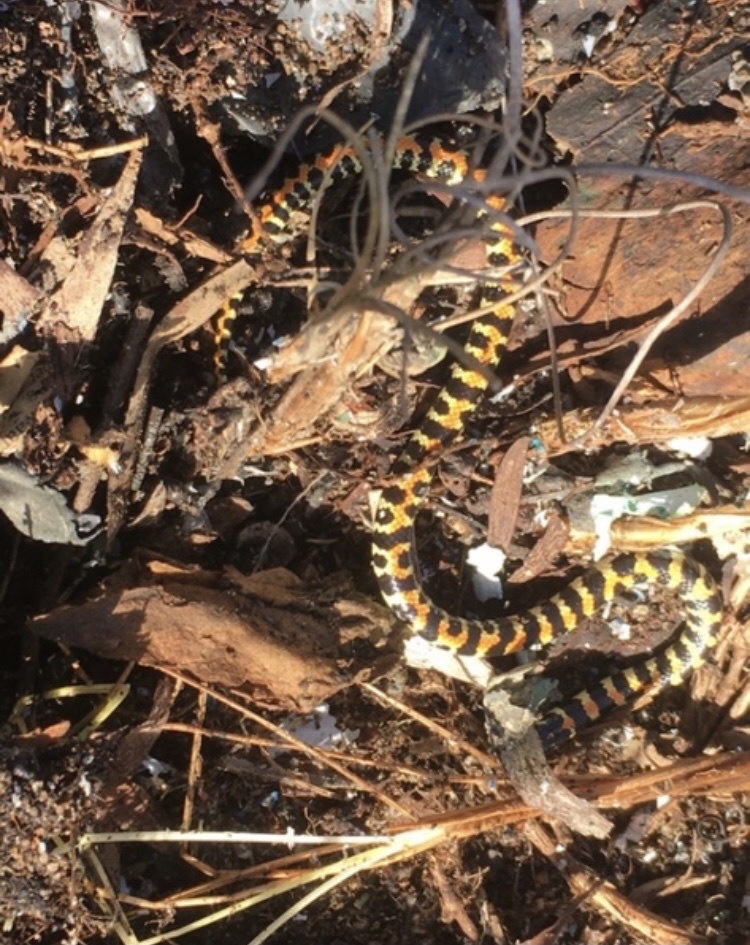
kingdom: Animalia
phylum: Chordata
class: Squamata
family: Atractaspididae
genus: Homoroselaps
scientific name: Homoroselaps lacteus
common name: Spotted harlequin snake
